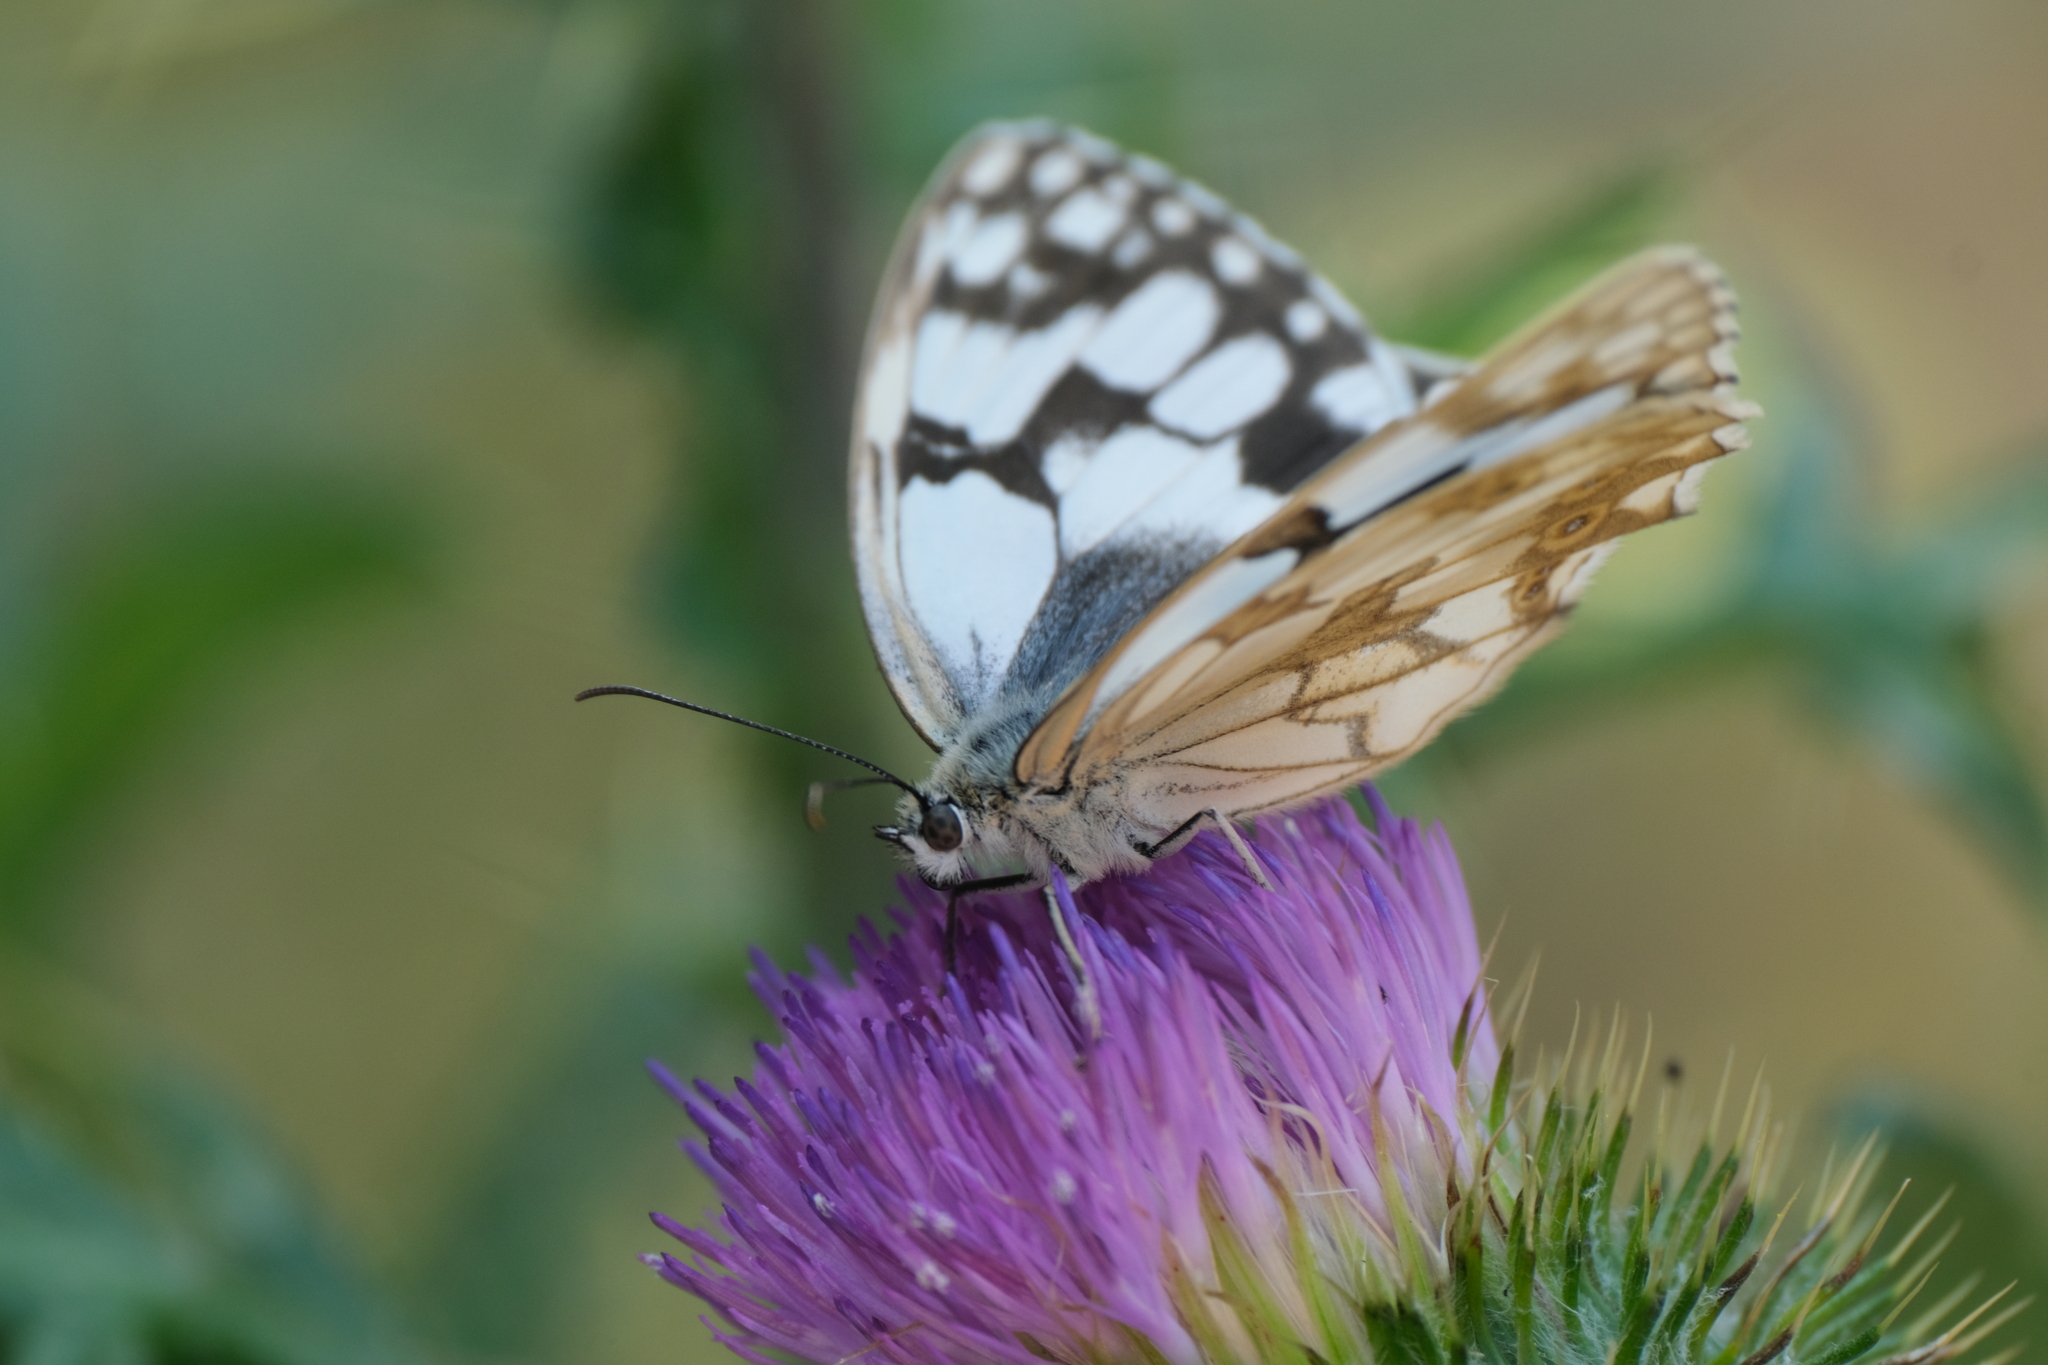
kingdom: Animalia
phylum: Arthropoda
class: Insecta
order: Lepidoptera
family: Nymphalidae
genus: Melanargia
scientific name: Melanargia lachesis
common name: Iberian marbled white
